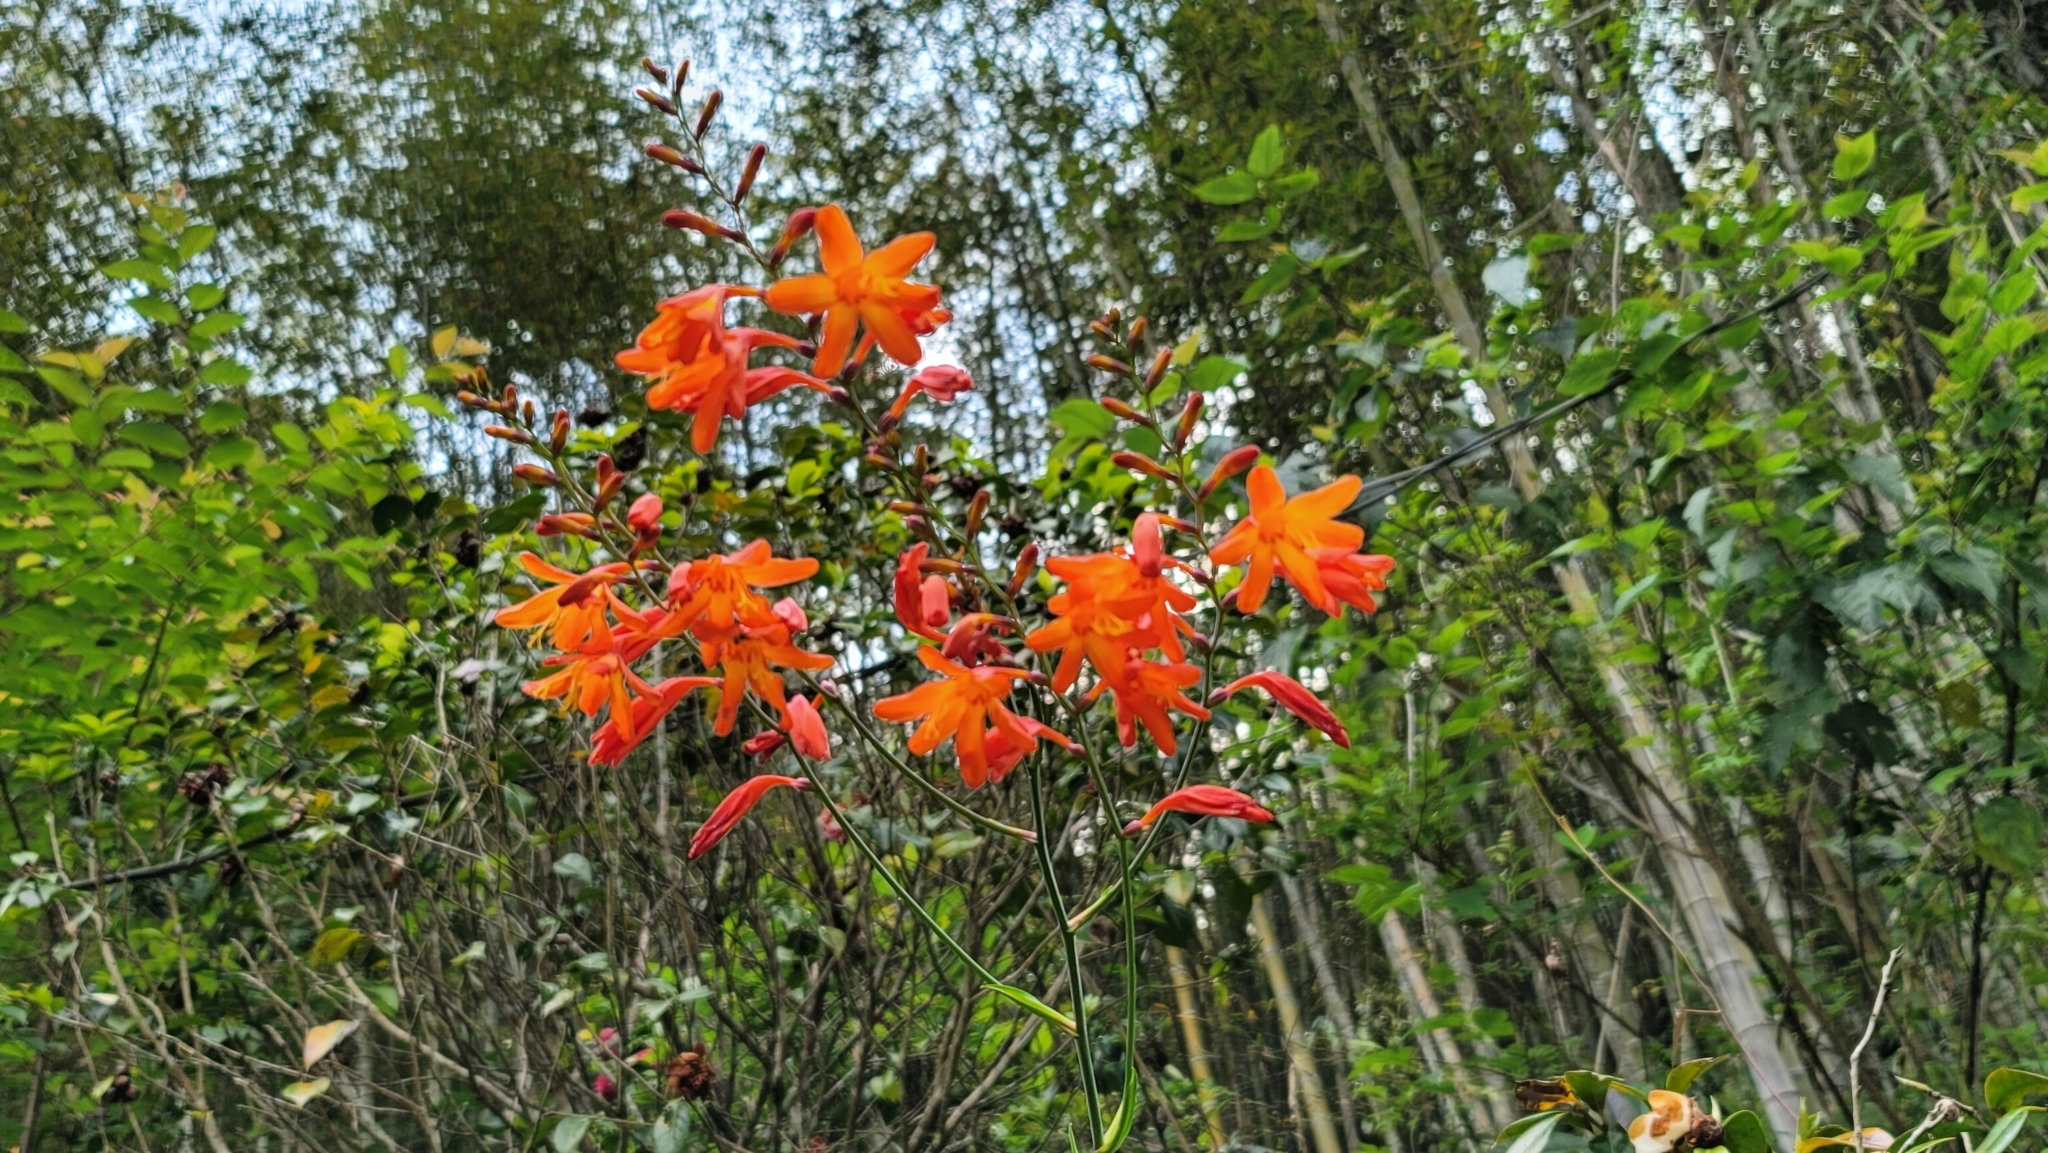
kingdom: Plantae
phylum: Tracheophyta
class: Liliopsida
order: Asparagales
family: Iridaceae
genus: Crocosmia
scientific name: Crocosmia crocosmiiflora
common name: Montbretia
